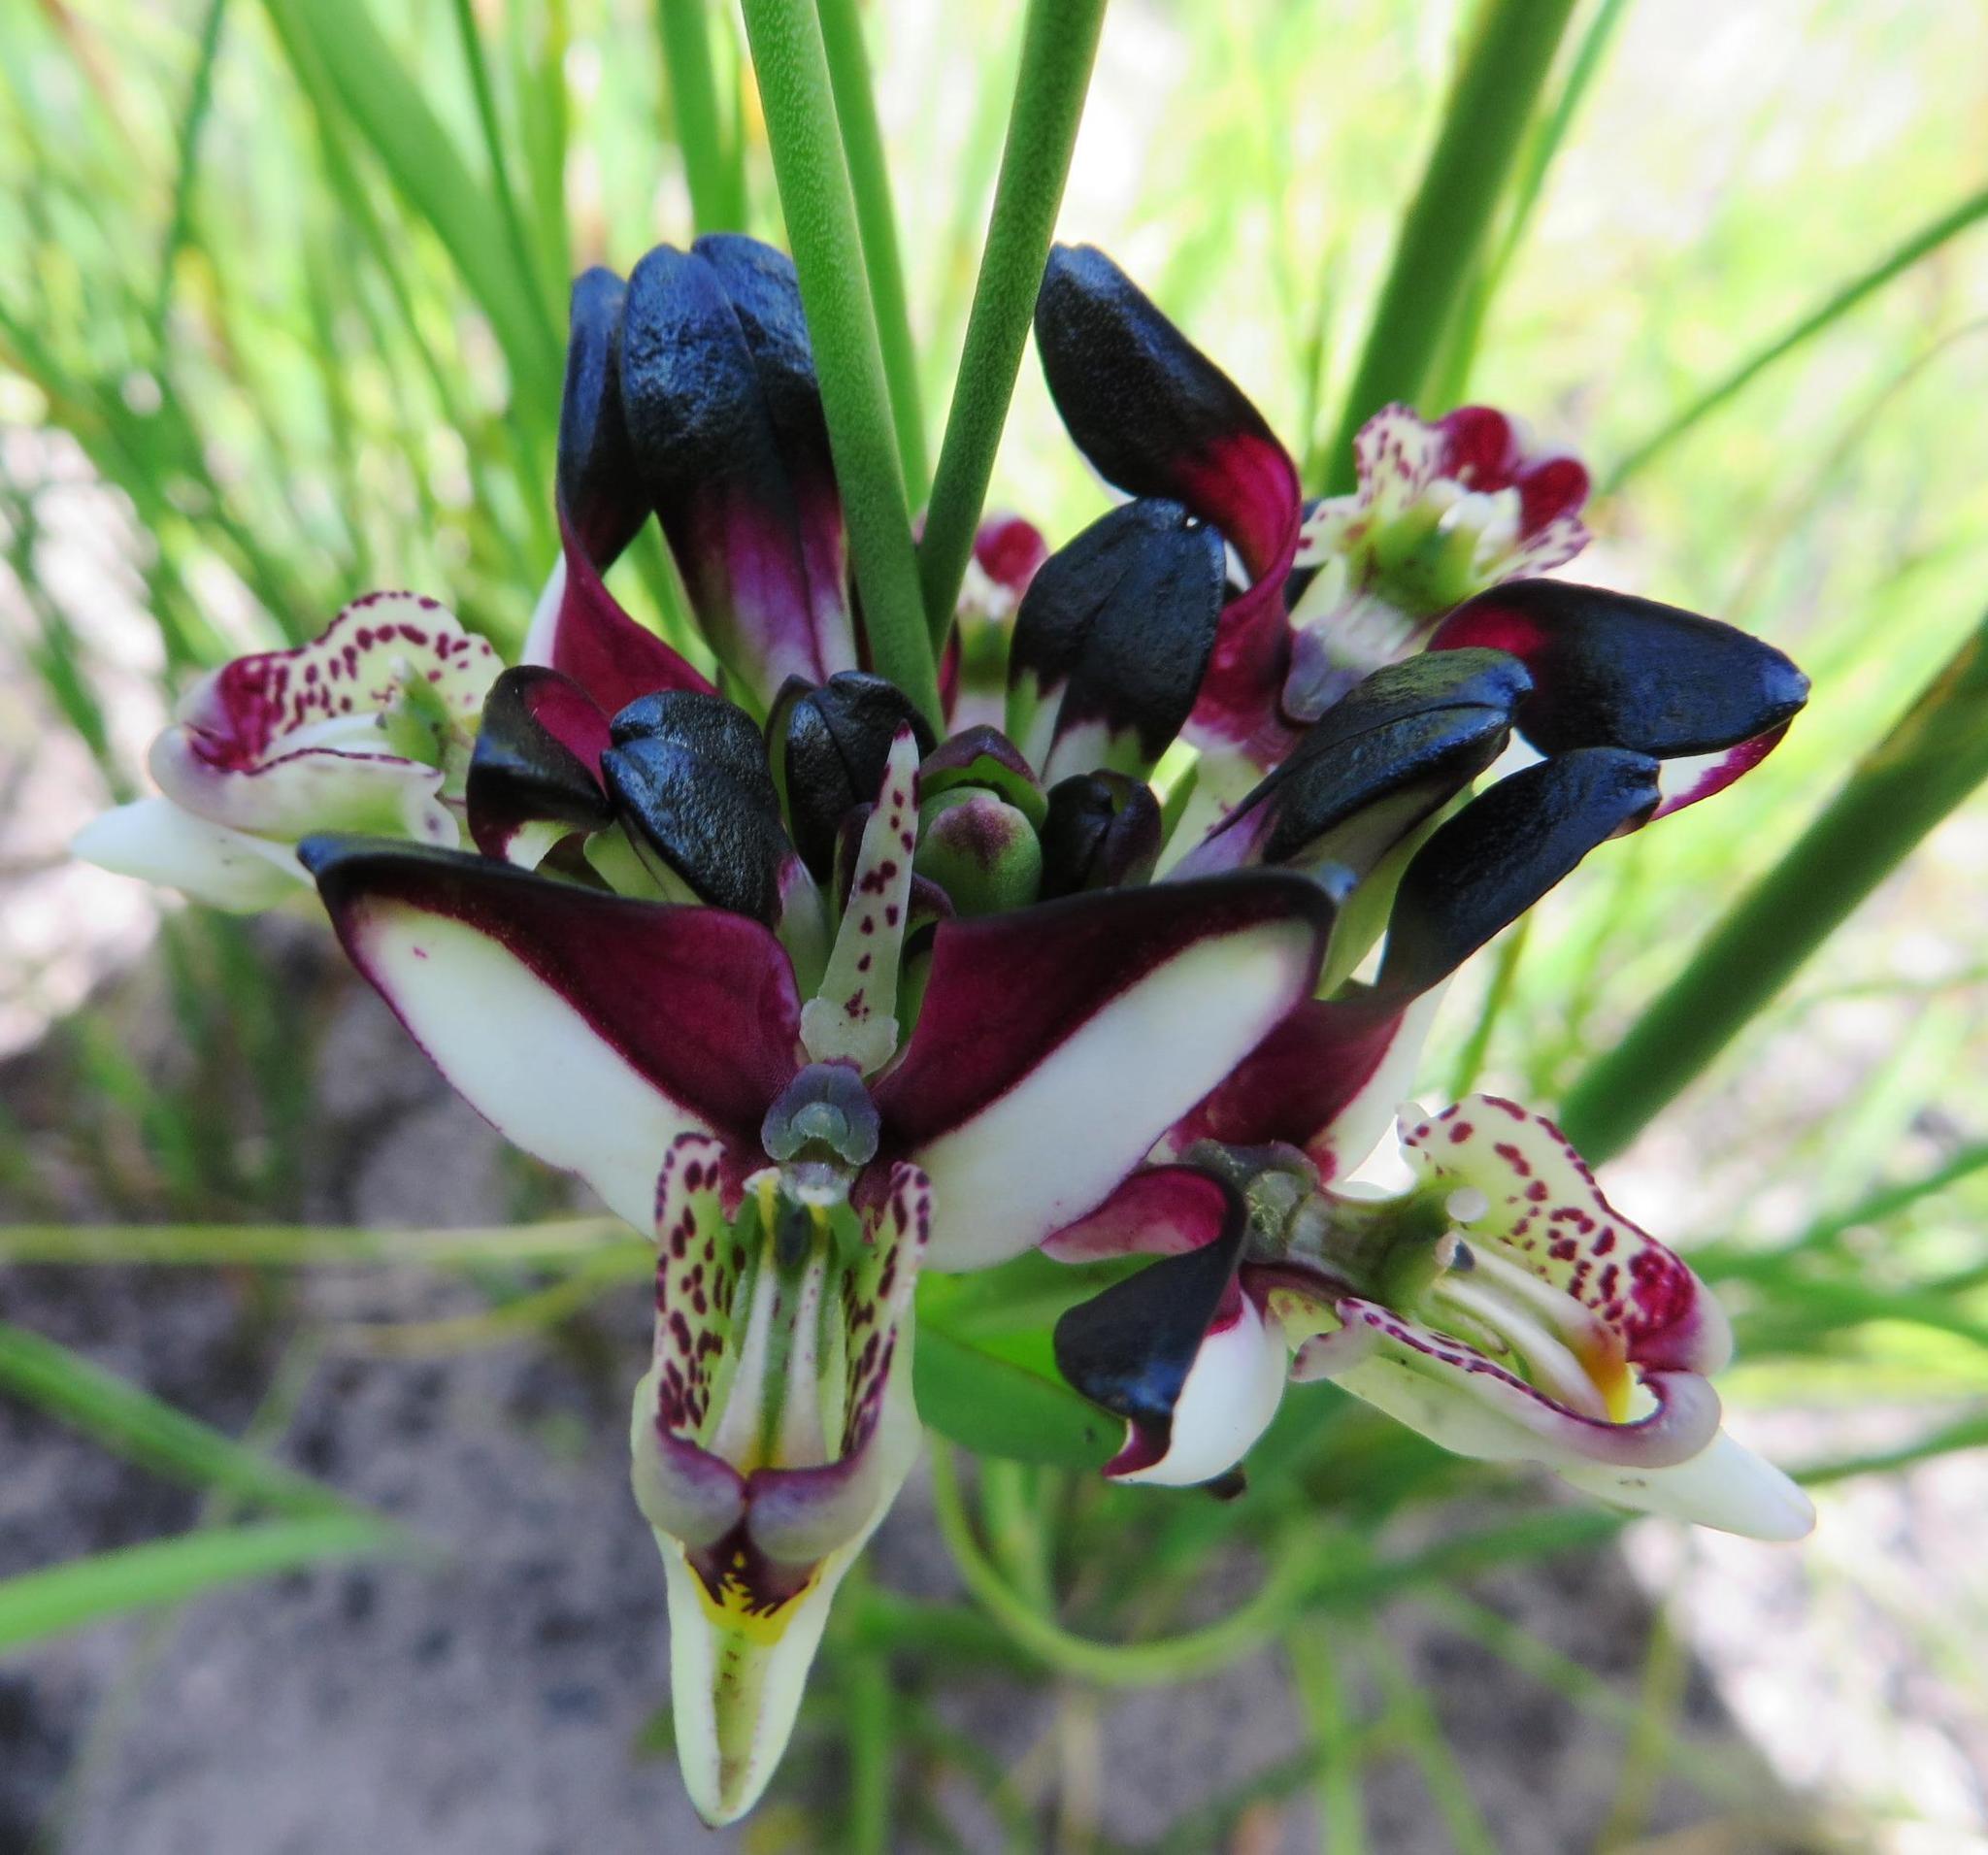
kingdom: Plantae
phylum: Tracheophyta
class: Liliopsida
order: Asparagales
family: Orchidaceae
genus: Disa
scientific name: Disa atricapilla
